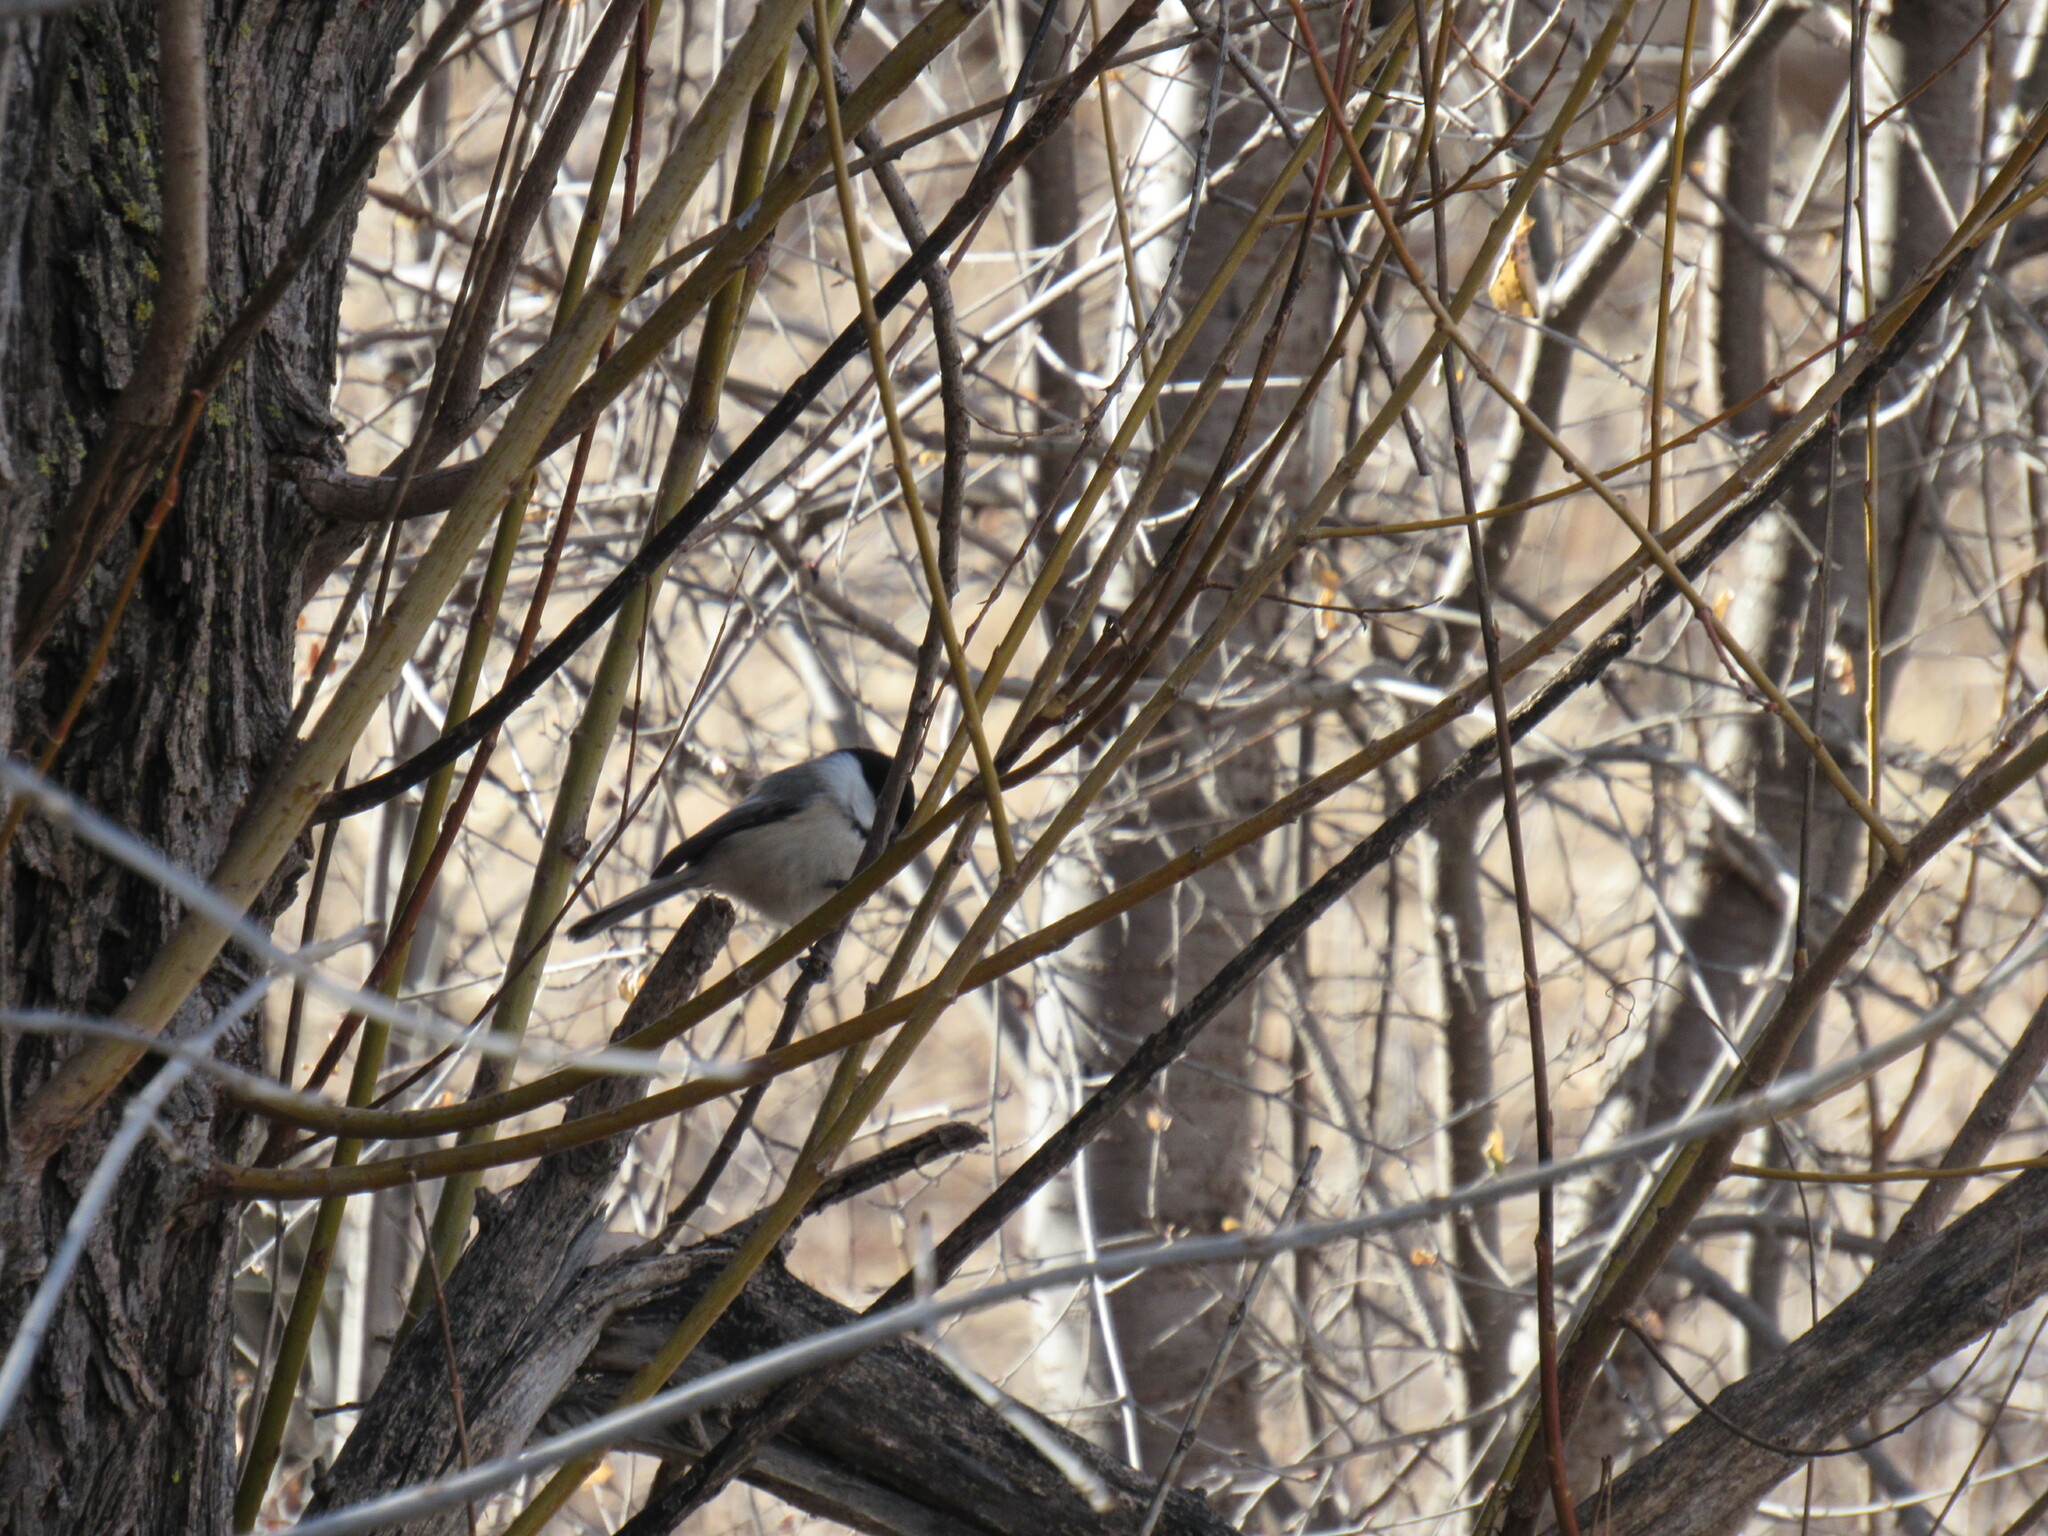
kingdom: Animalia
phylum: Chordata
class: Aves
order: Passeriformes
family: Paridae
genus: Poecile
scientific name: Poecile atricapillus
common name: Black-capped chickadee
